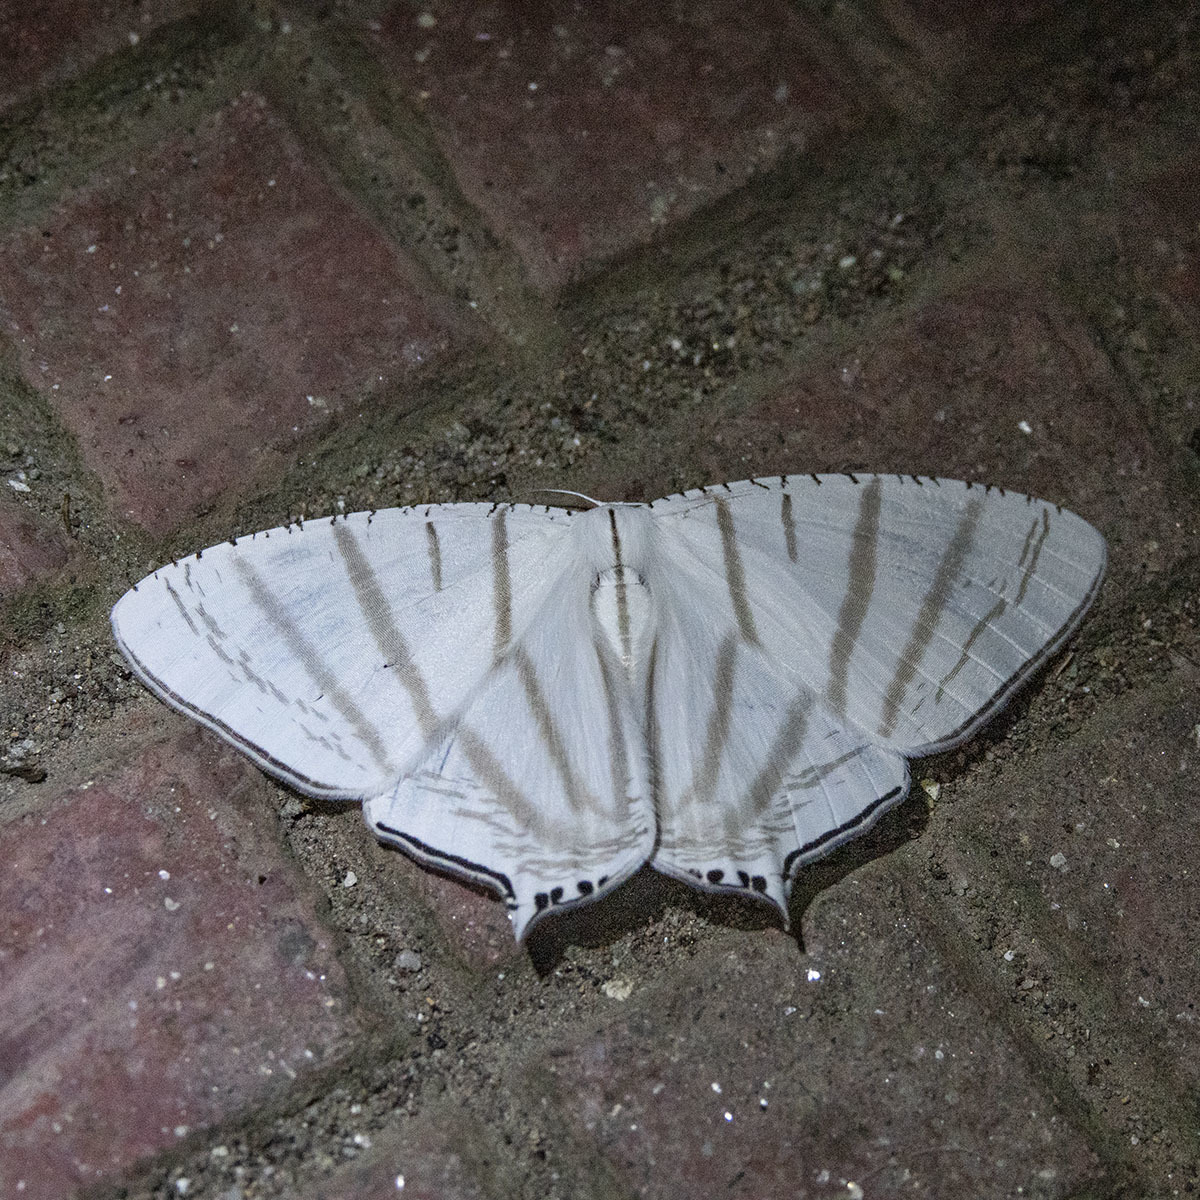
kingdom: Animalia
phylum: Arthropoda
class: Insecta
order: Lepidoptera
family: Uraniidae
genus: Urapteroides
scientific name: Urapteroides astheniata
